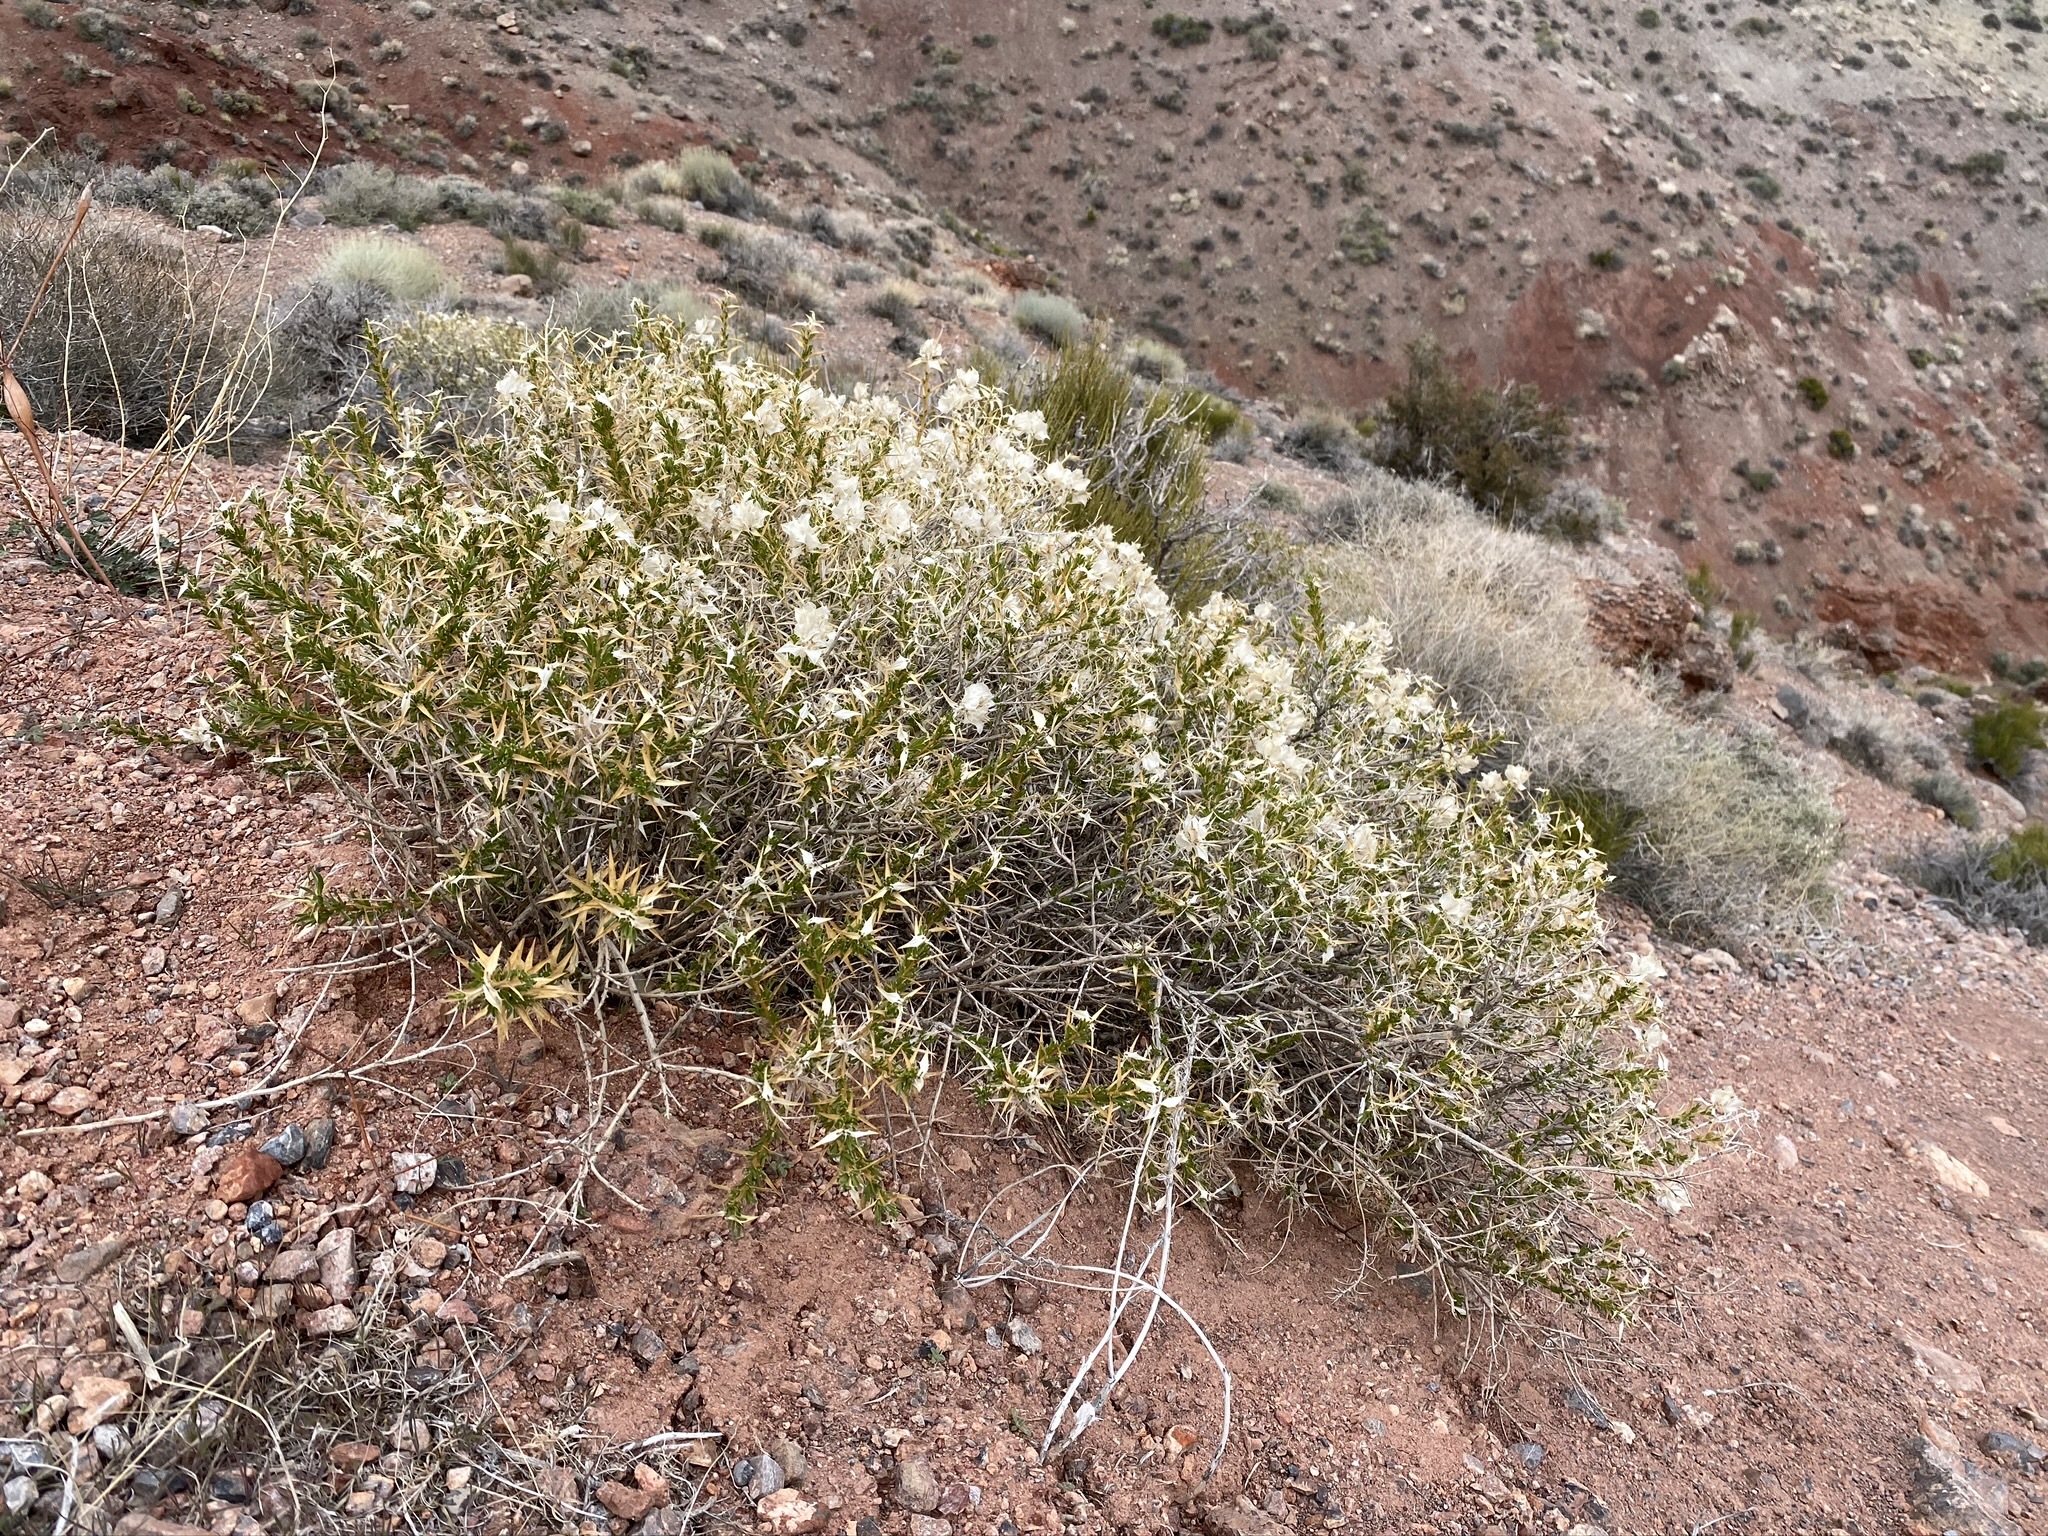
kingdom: Plantae
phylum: Tracheophyta
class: Magnoliopsida
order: Asterales
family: Asteraceae
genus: Hecastocleis
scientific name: Hecastocleis shockleyi
